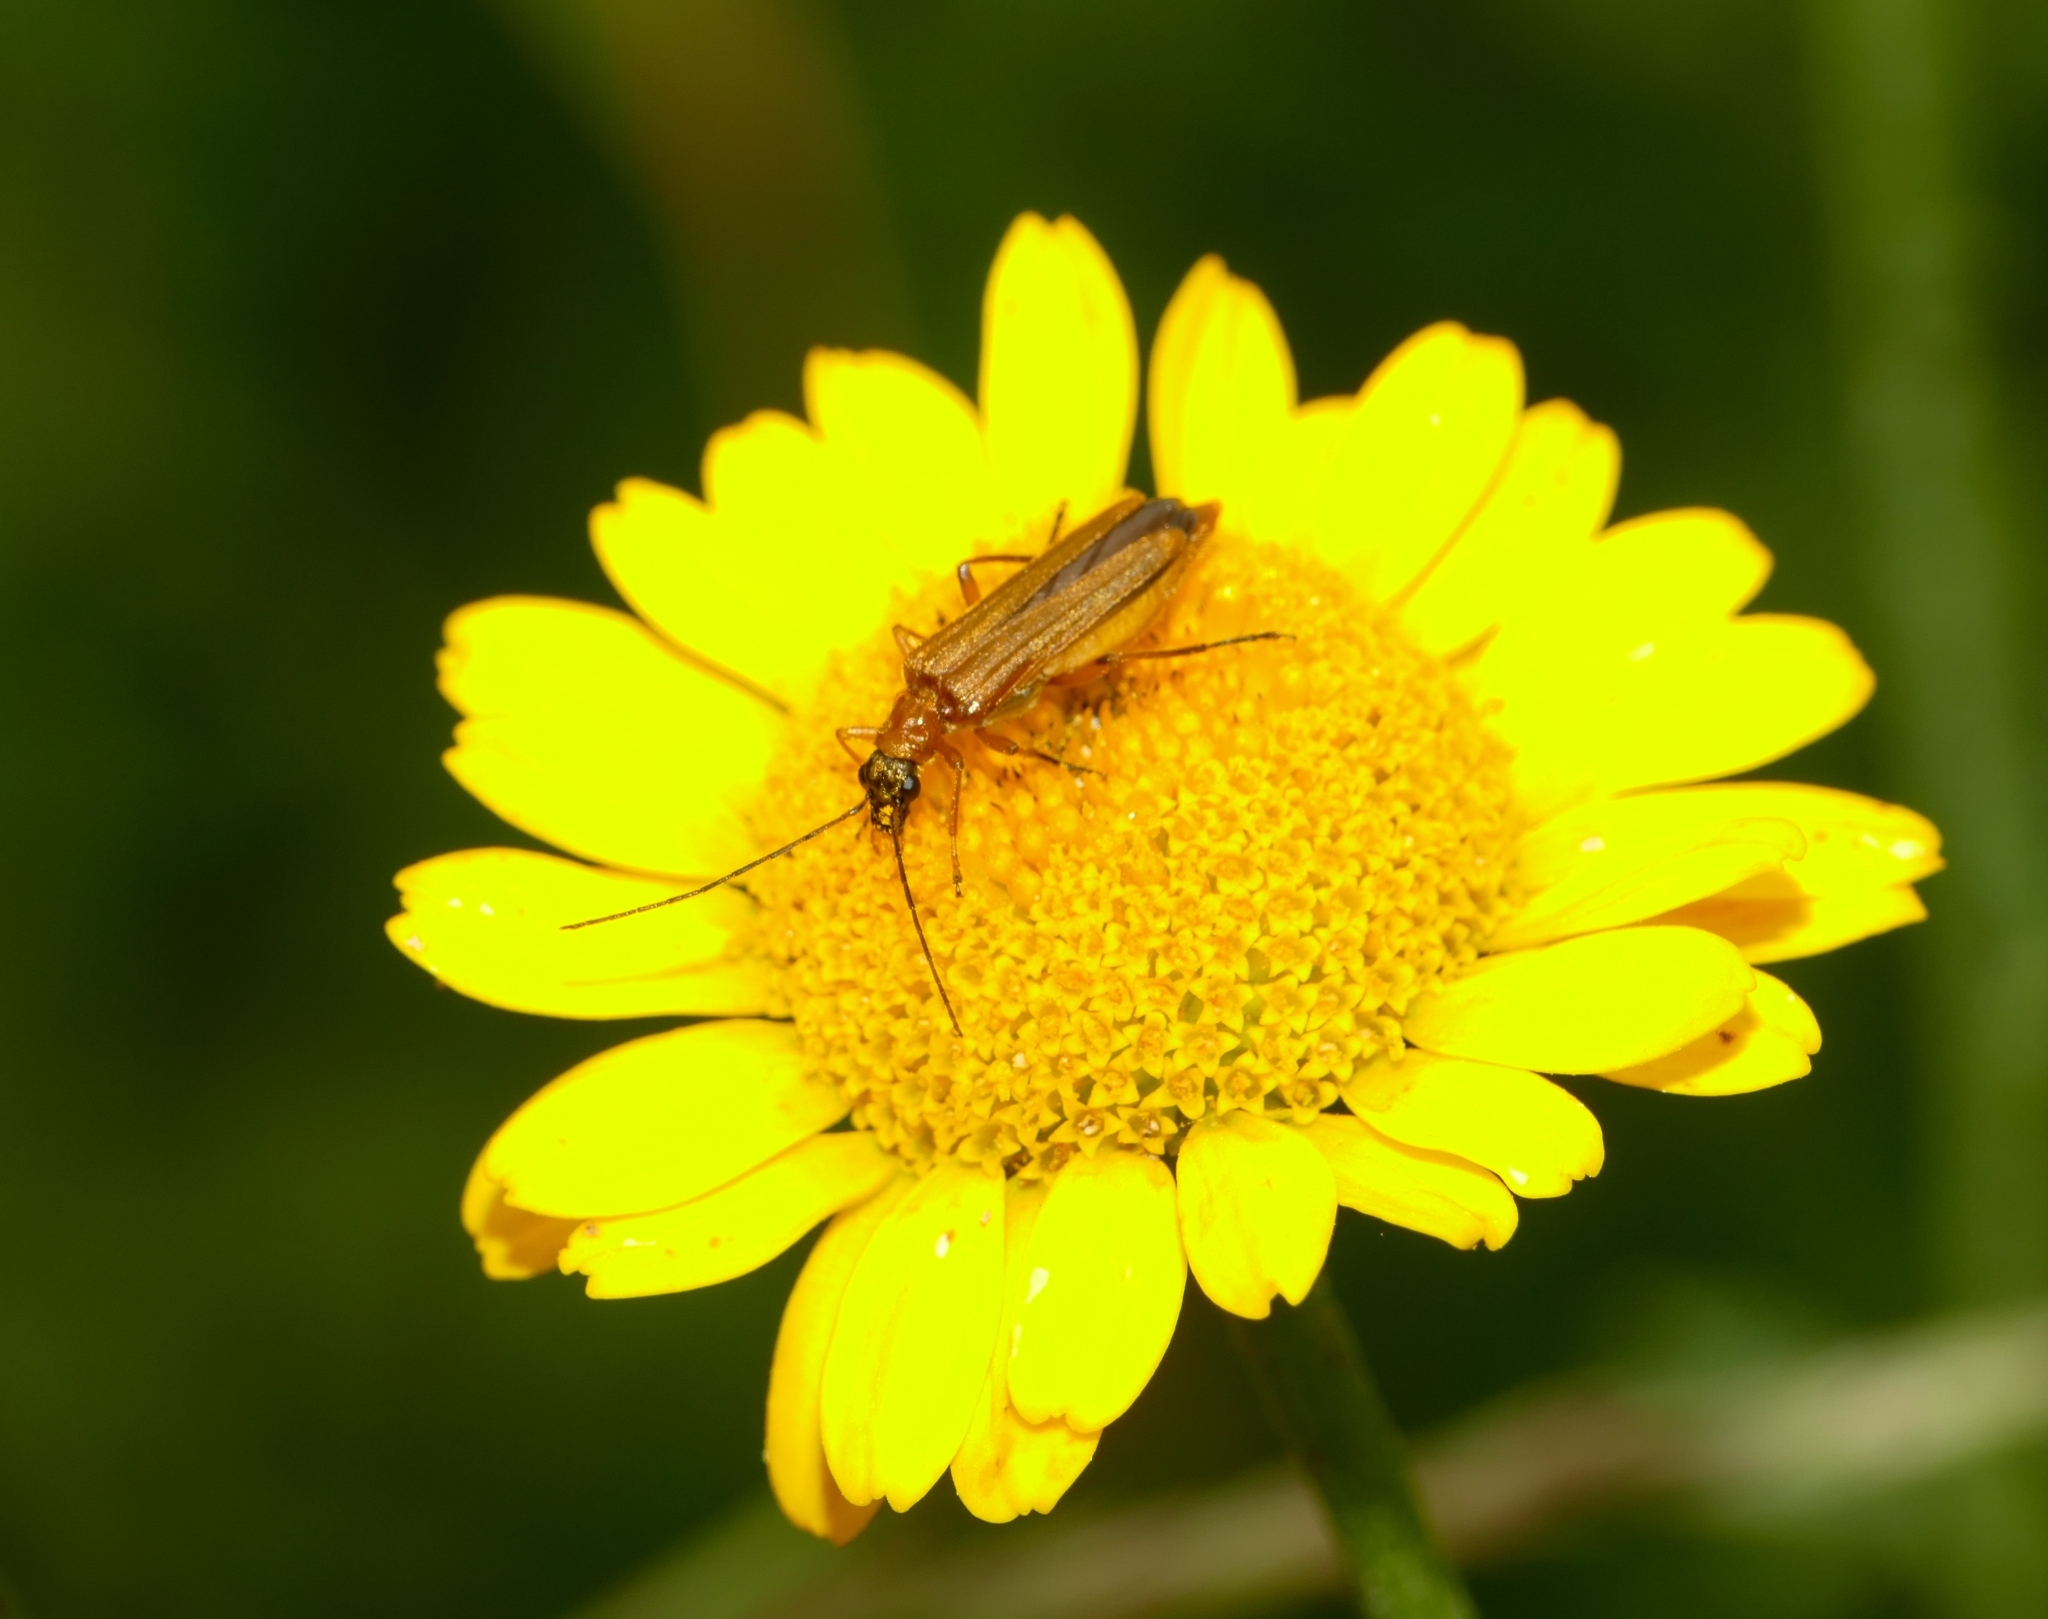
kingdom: Animalia
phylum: Arthropoda
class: Insecta
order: Coleoptera
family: Oedemeridae
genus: Oedemera
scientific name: Oedemera podagrariae
